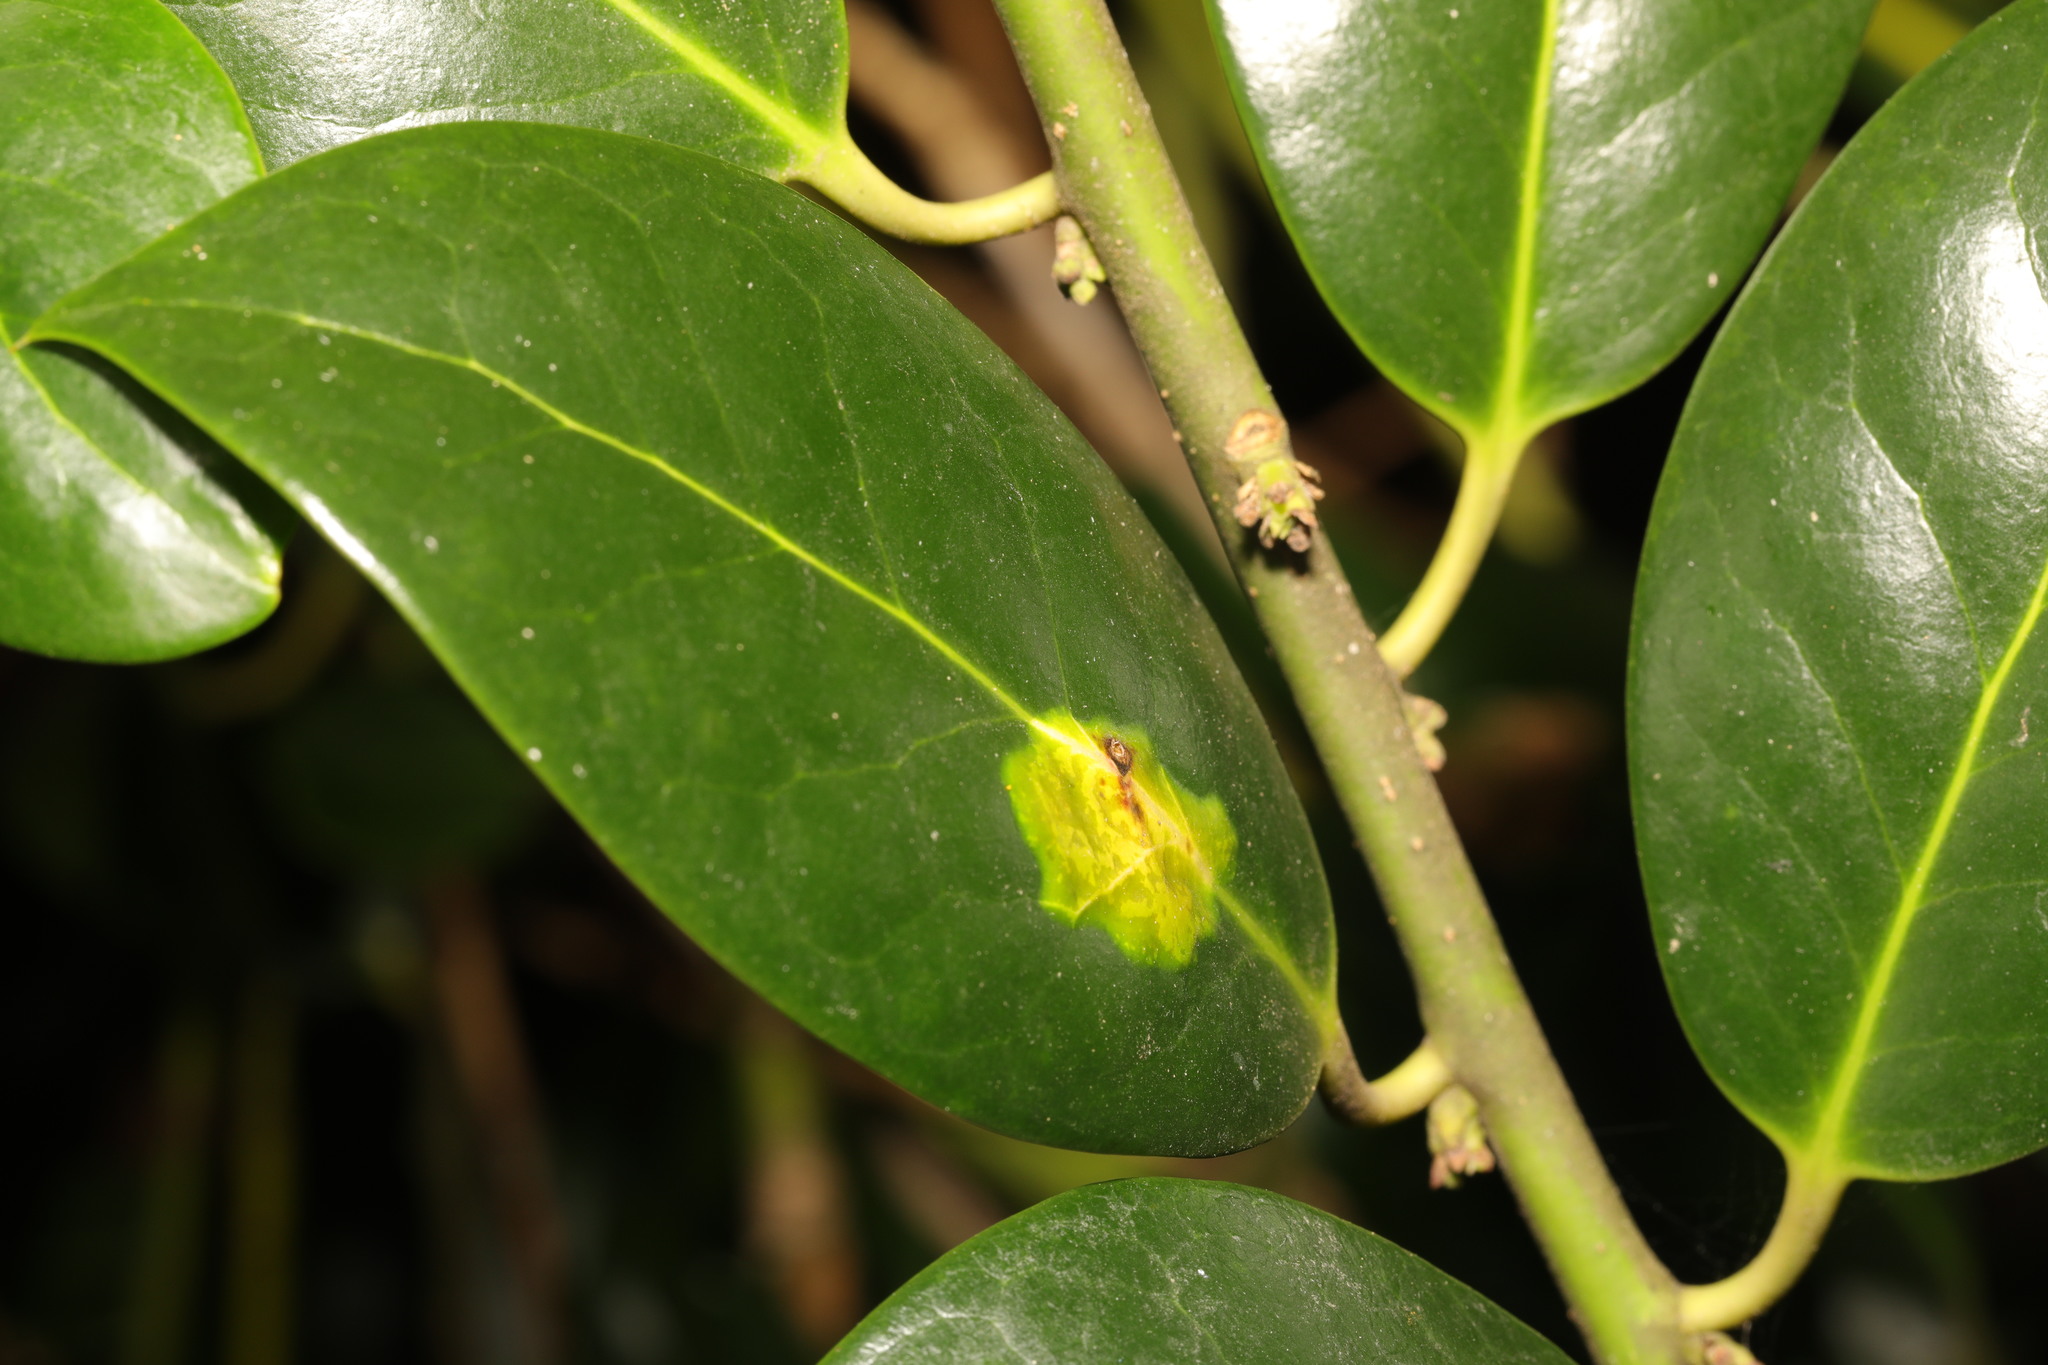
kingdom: Animalia
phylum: Arthropoda
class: Insecta
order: Diptera
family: Agromyzidae
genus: Phytomyza
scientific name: Phytomyza ilicis
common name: Holly leafminer
